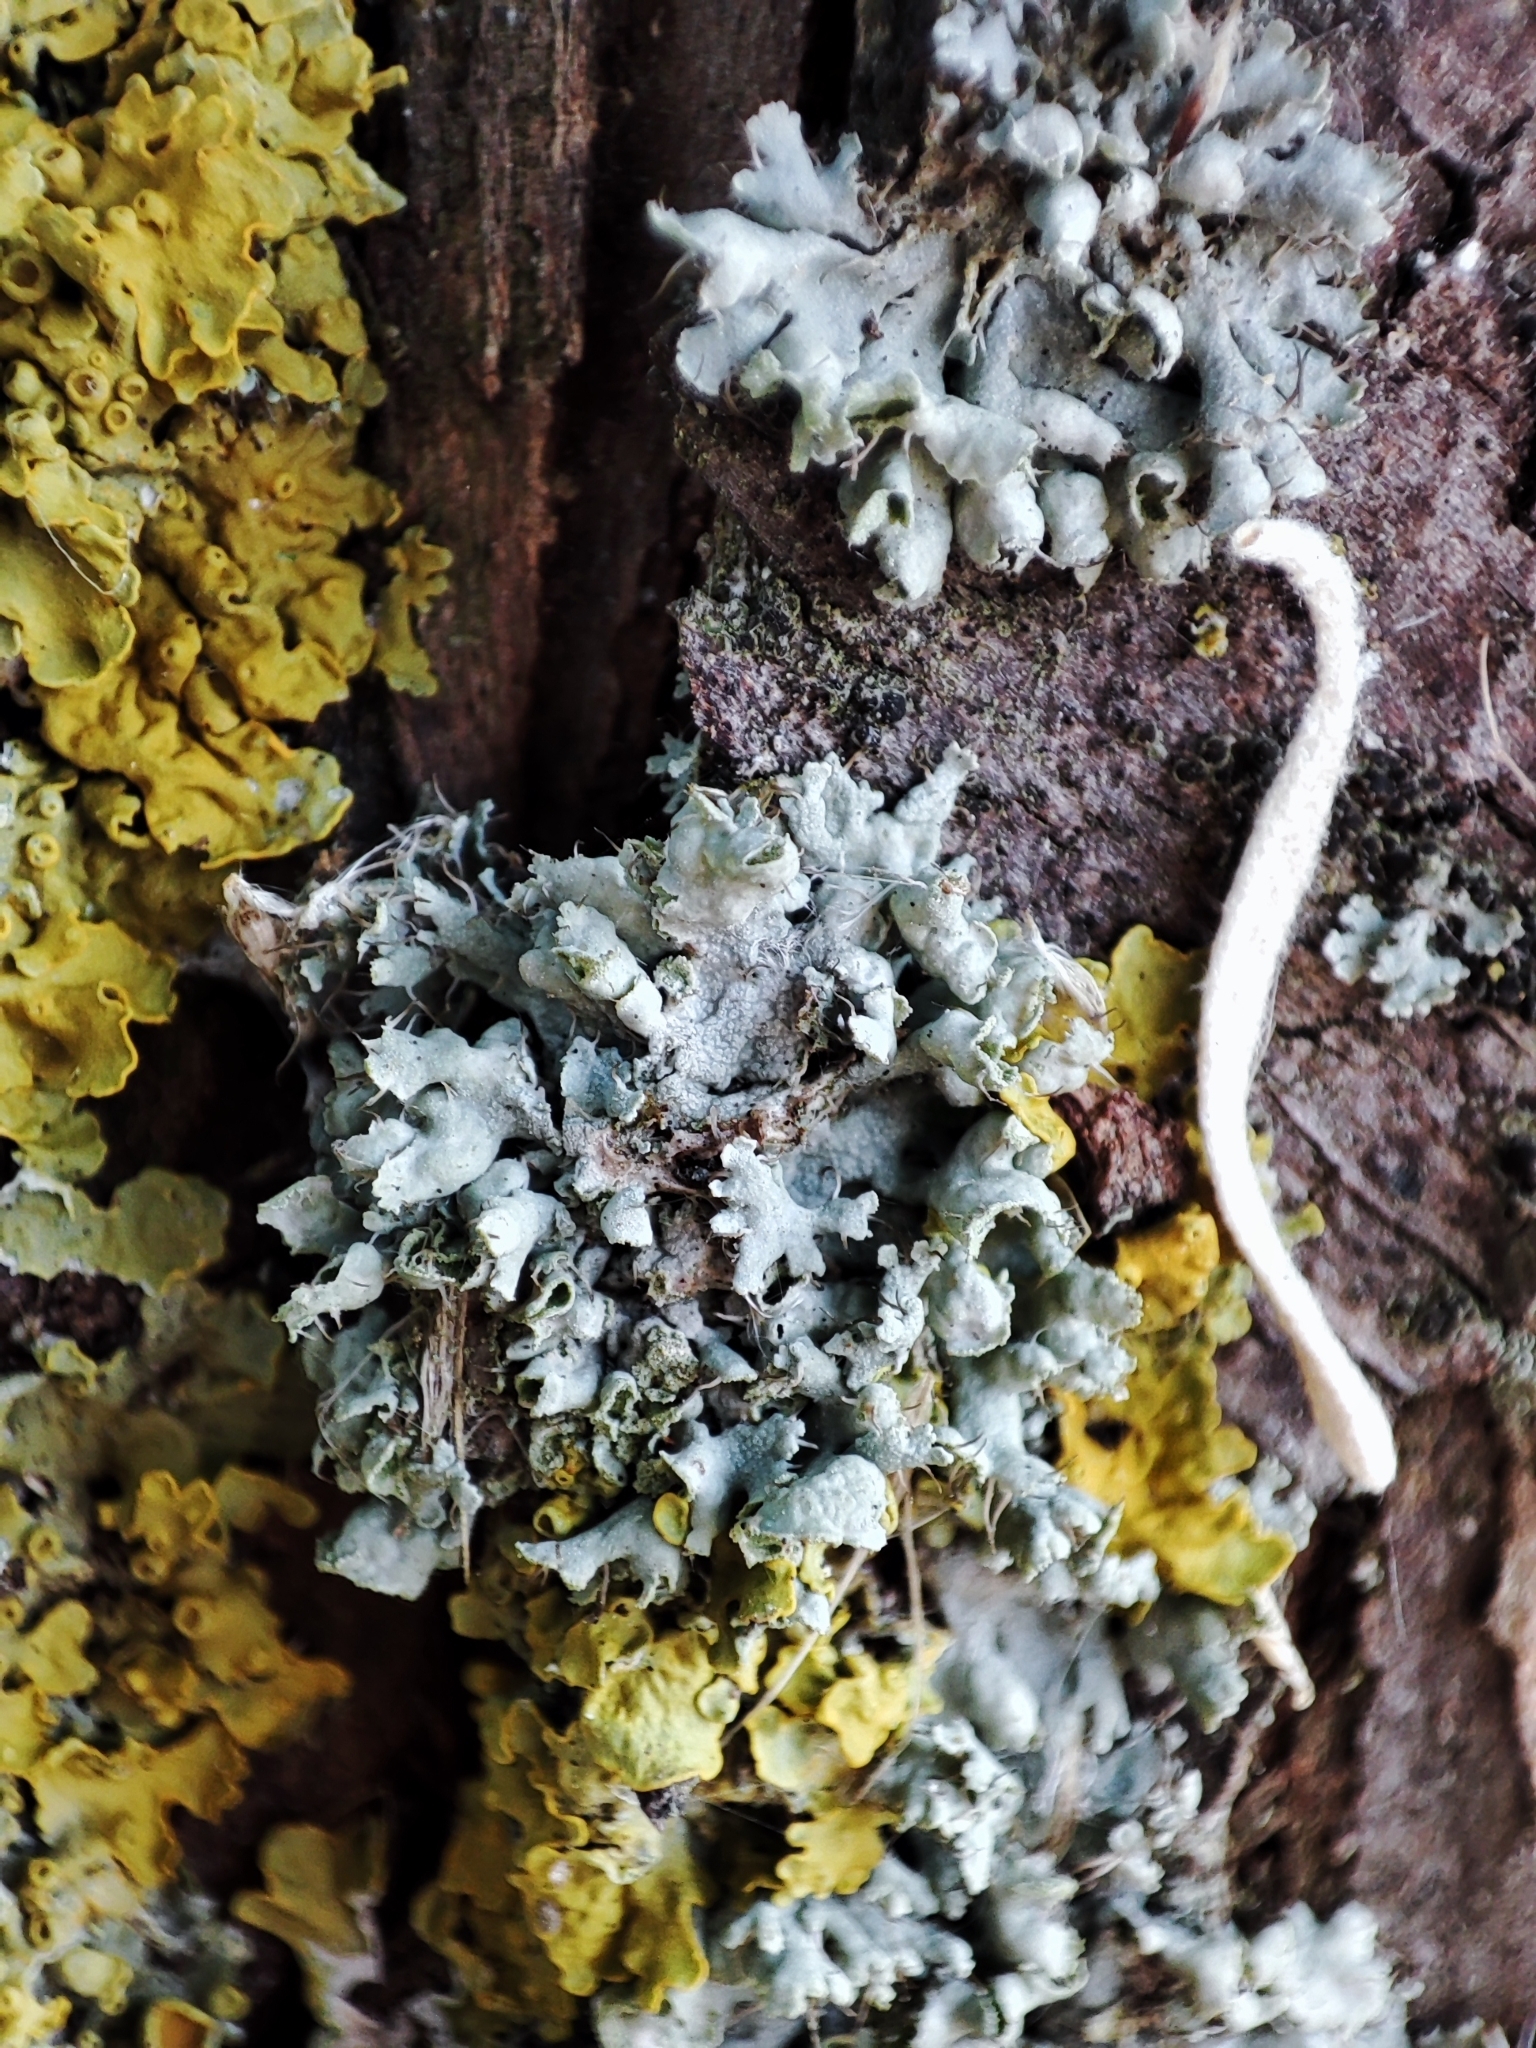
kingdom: Fungi
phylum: Ascomycota
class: Lecanoromycetes
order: Caliciales
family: Physciaceae
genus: Physcia
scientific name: Physcia adscendens
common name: Hooded rosette lichen
